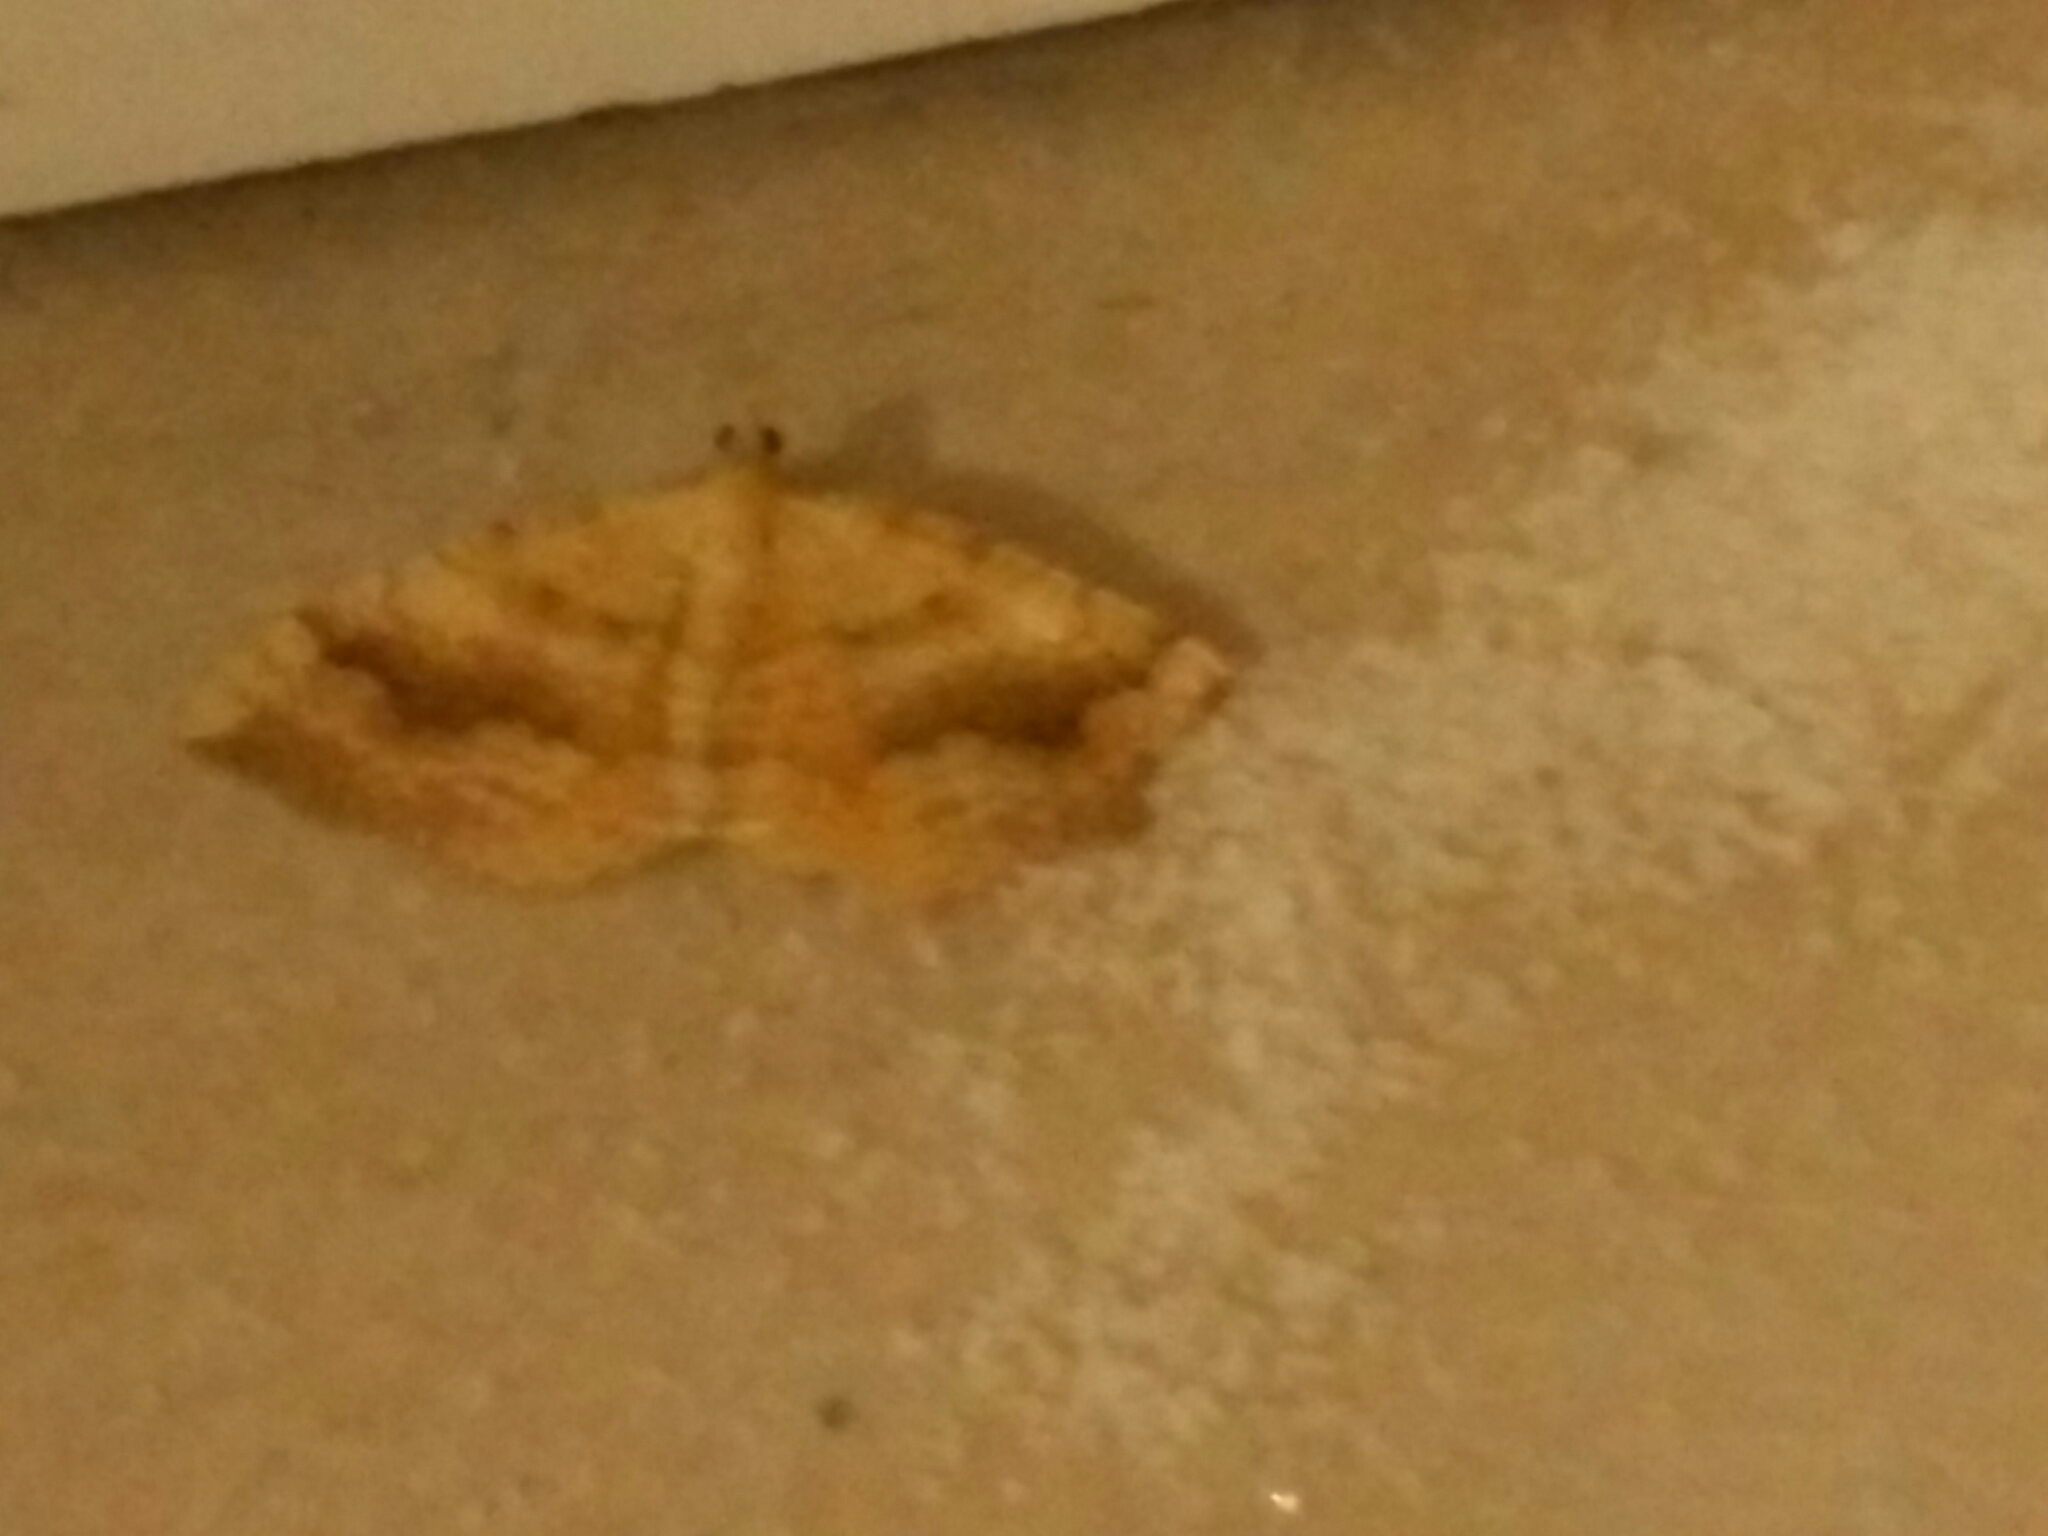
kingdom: Animalia
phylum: Arthropoda
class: Insecta
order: Lepidoptera
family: Geometridae
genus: Camptogramma
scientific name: Camptogramma bilineata
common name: Yellow shell
